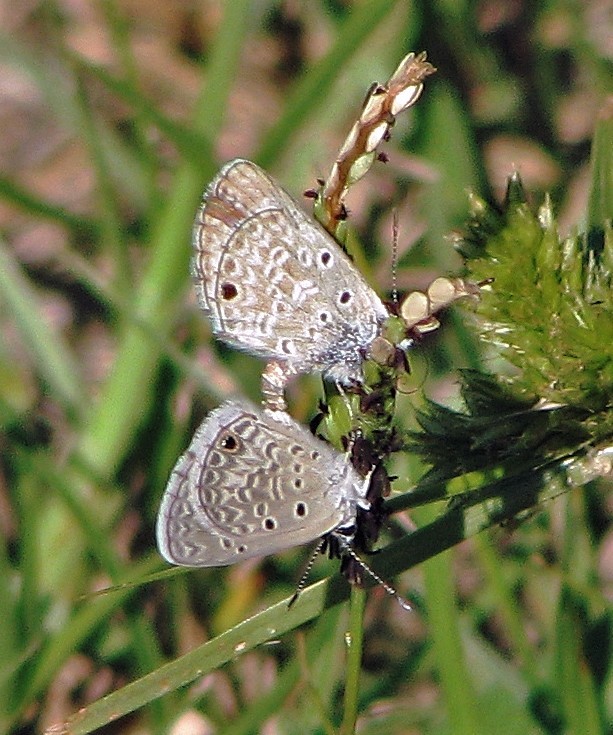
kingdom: Animalia
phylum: Arthropoda
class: Insecta
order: Lepidoptera
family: Lycaenidae
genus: Hemiargus
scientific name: Hemiargus hanno
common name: Common blue
